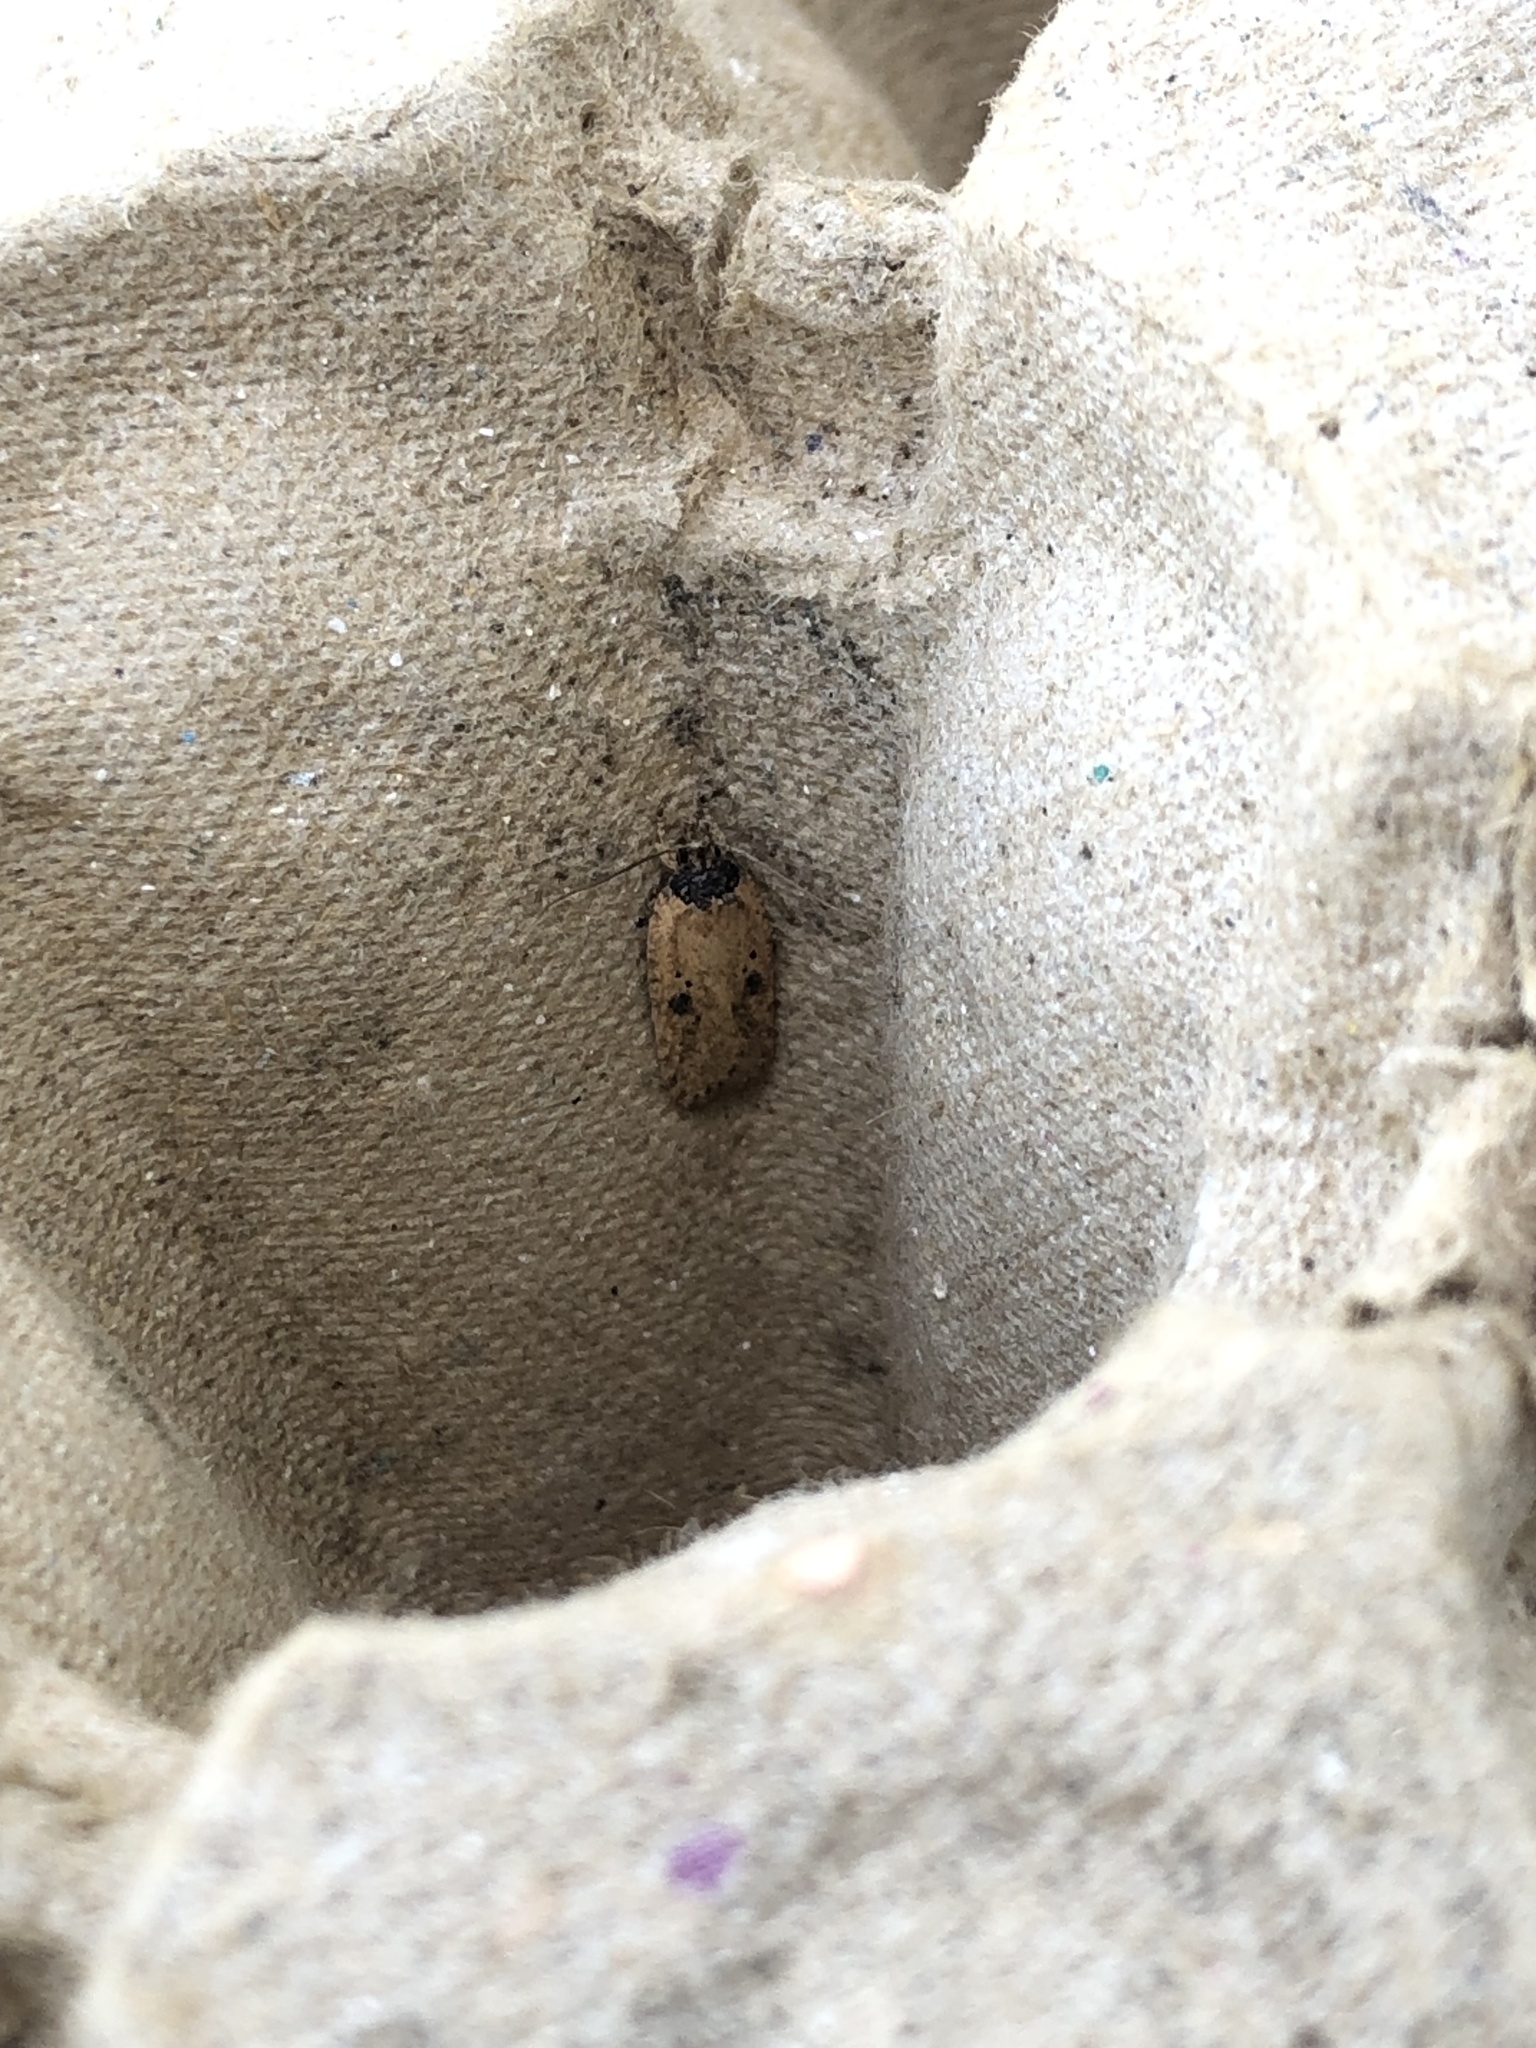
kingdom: Animalia
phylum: Arthropoda
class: Insecta
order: Lepidoptera
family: Depressariidae
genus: Agonopterix
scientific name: Agonopterix arenella
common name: Brindled flat-body
